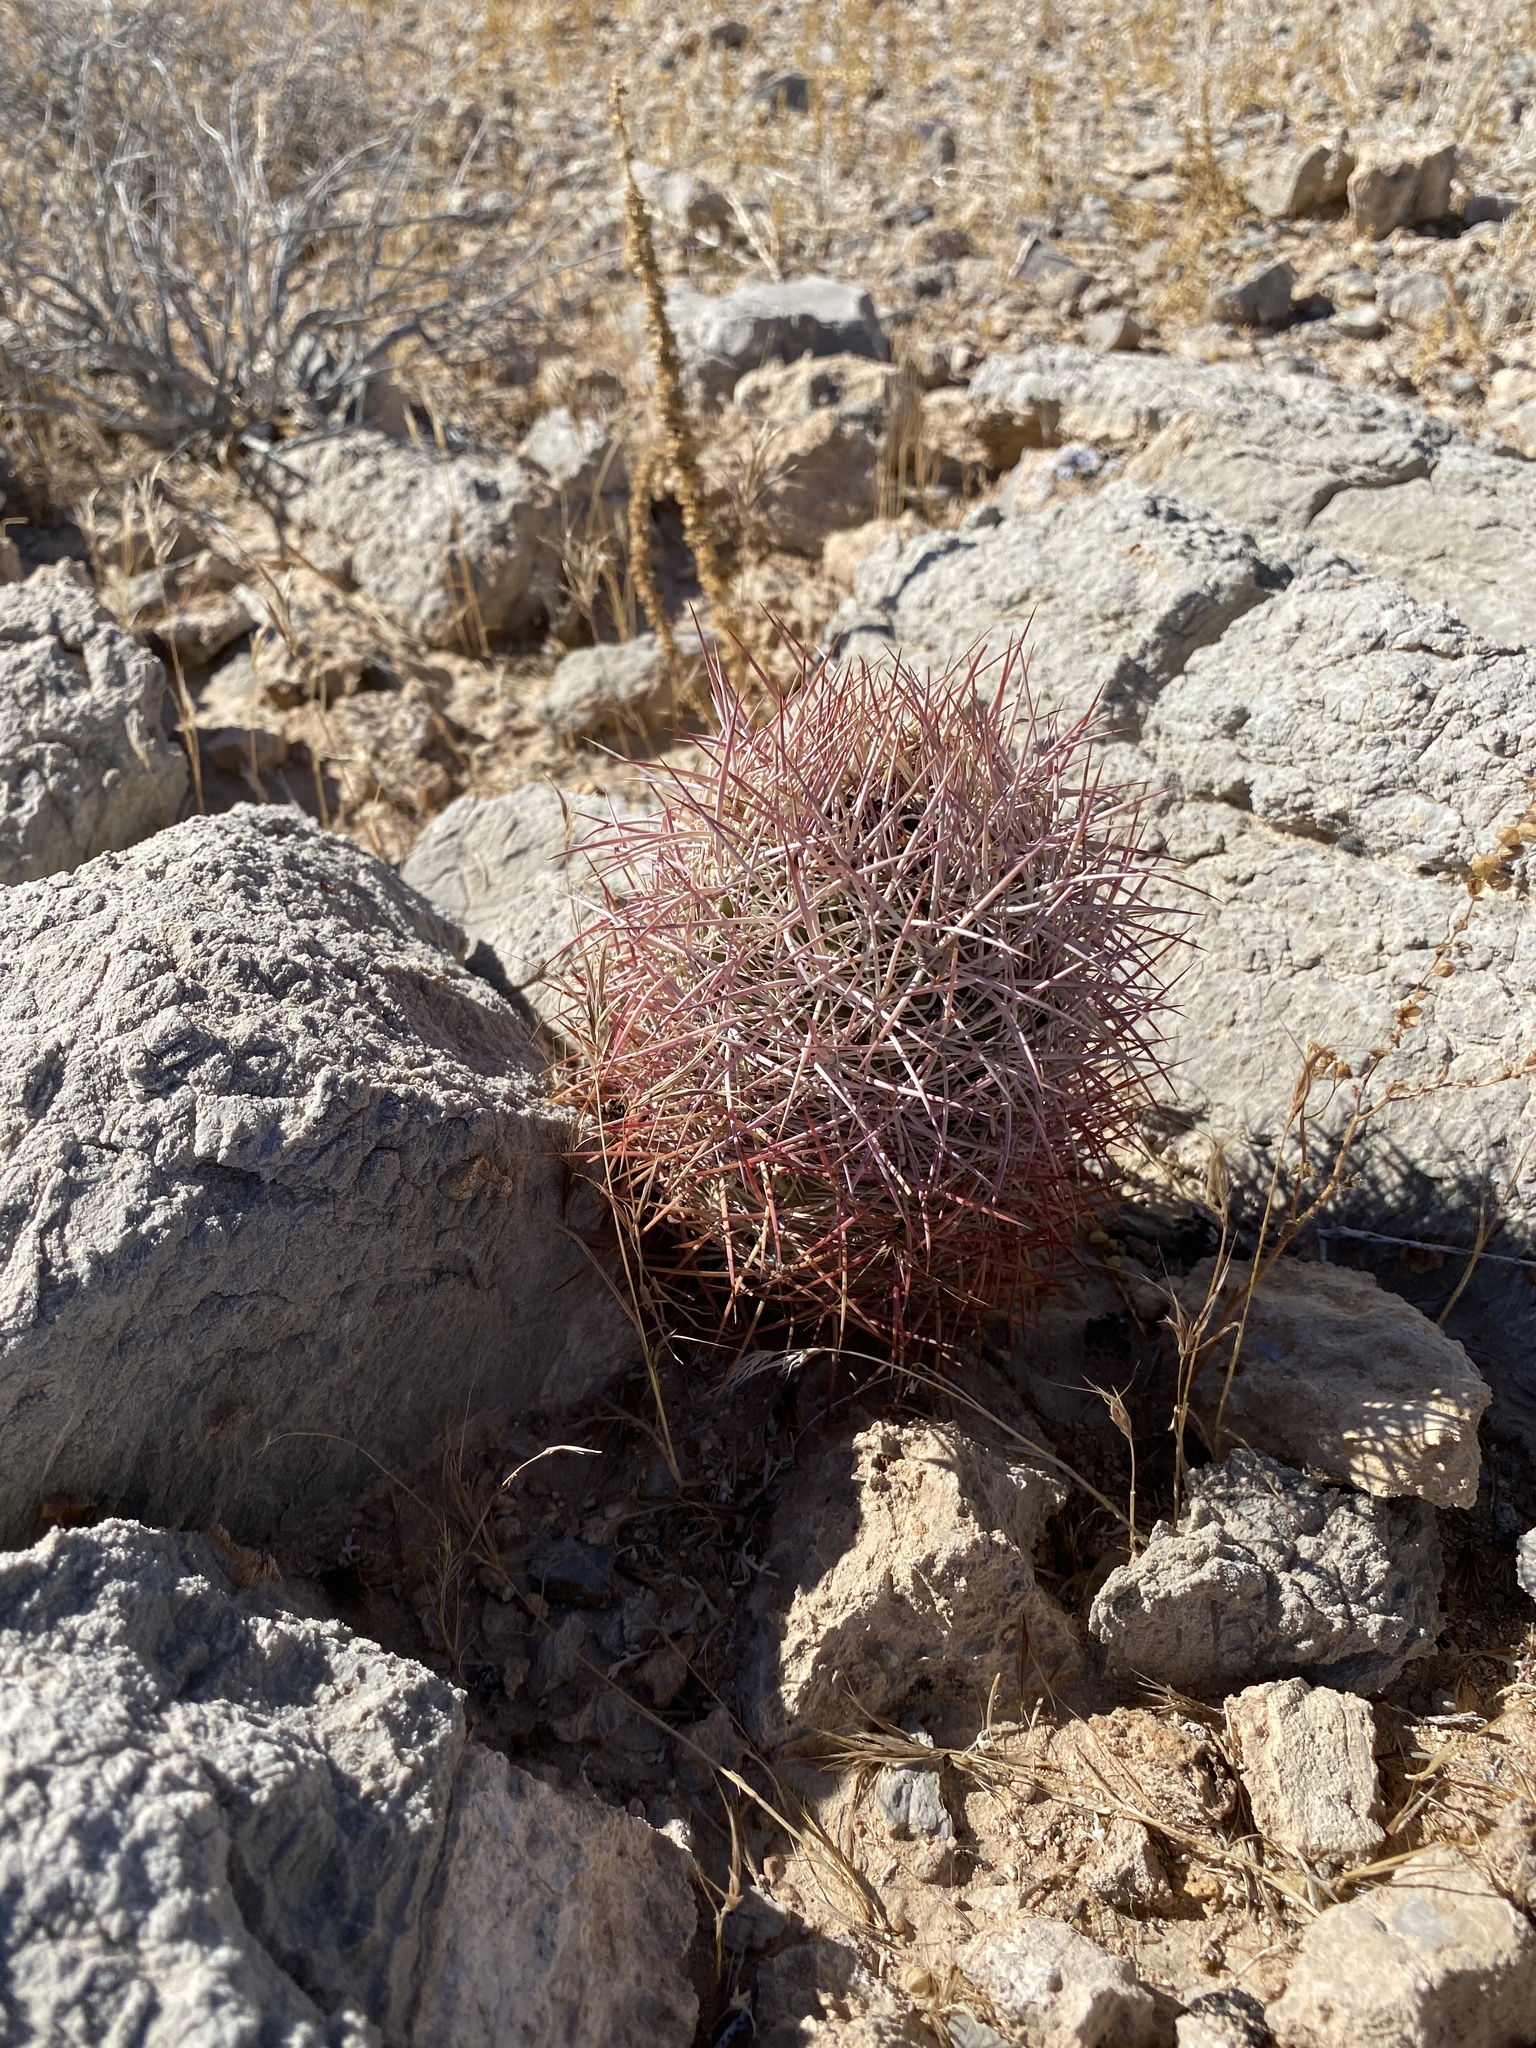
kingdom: Plantae
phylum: Tracheophyta
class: Magnoliopsida
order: Caryophyllales
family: Cactaceae
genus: Sclerocactus
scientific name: Sclerocactus johnsonii
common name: Eight-spine fishhook cactus
